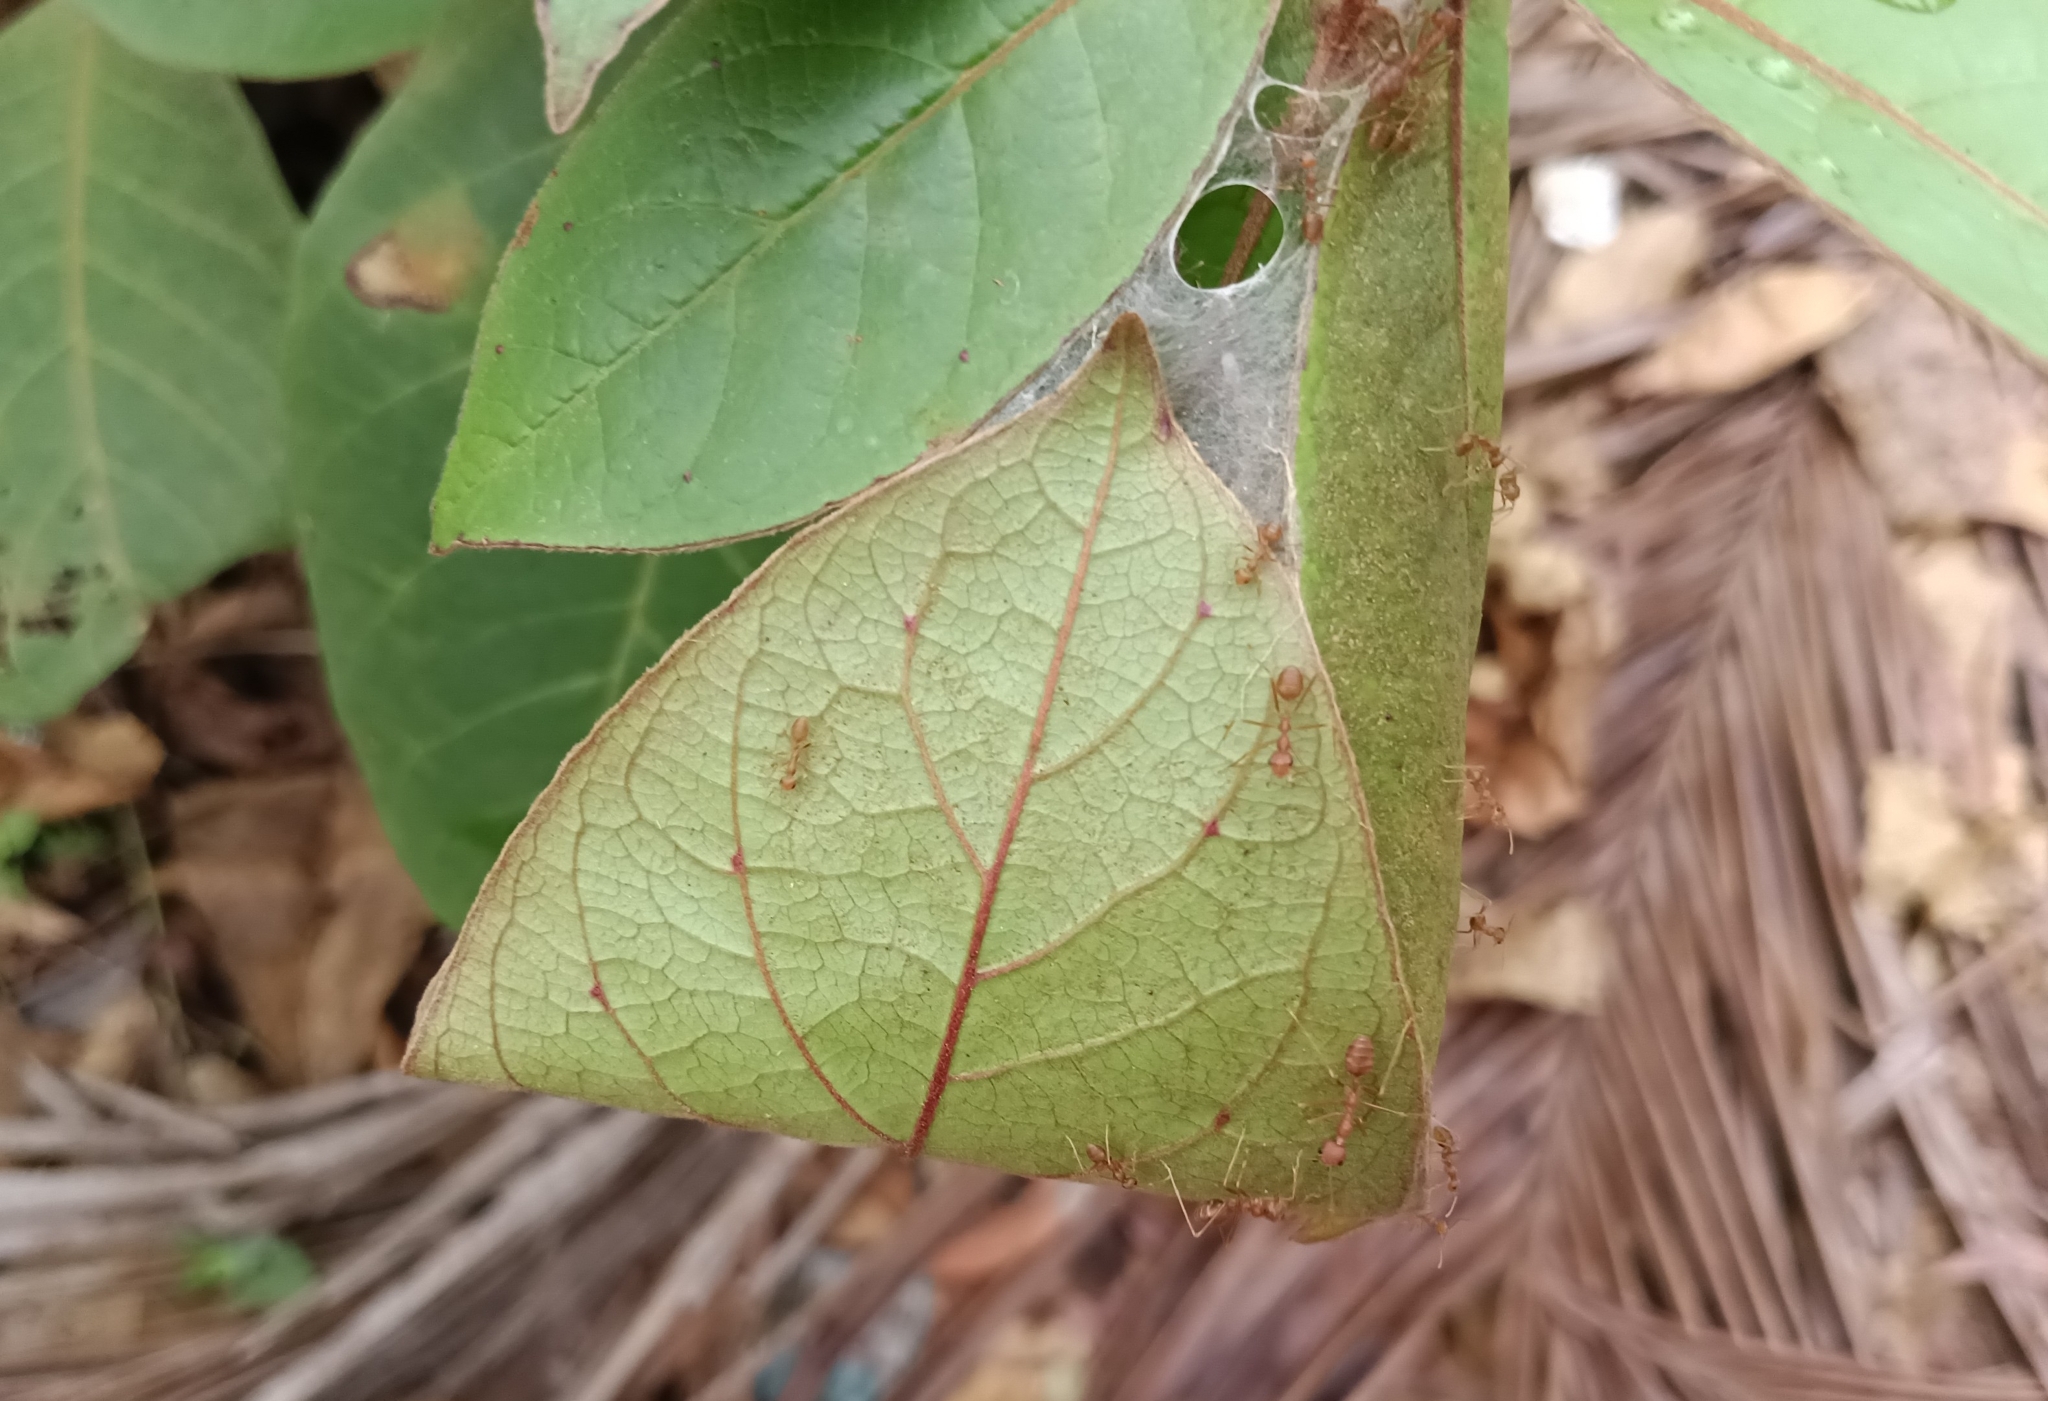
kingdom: Animalia
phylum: Arthropoda
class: Insecta
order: Hymenoptera
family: Formicidae
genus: Oecophylla
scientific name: Oecophylla smaragdina
